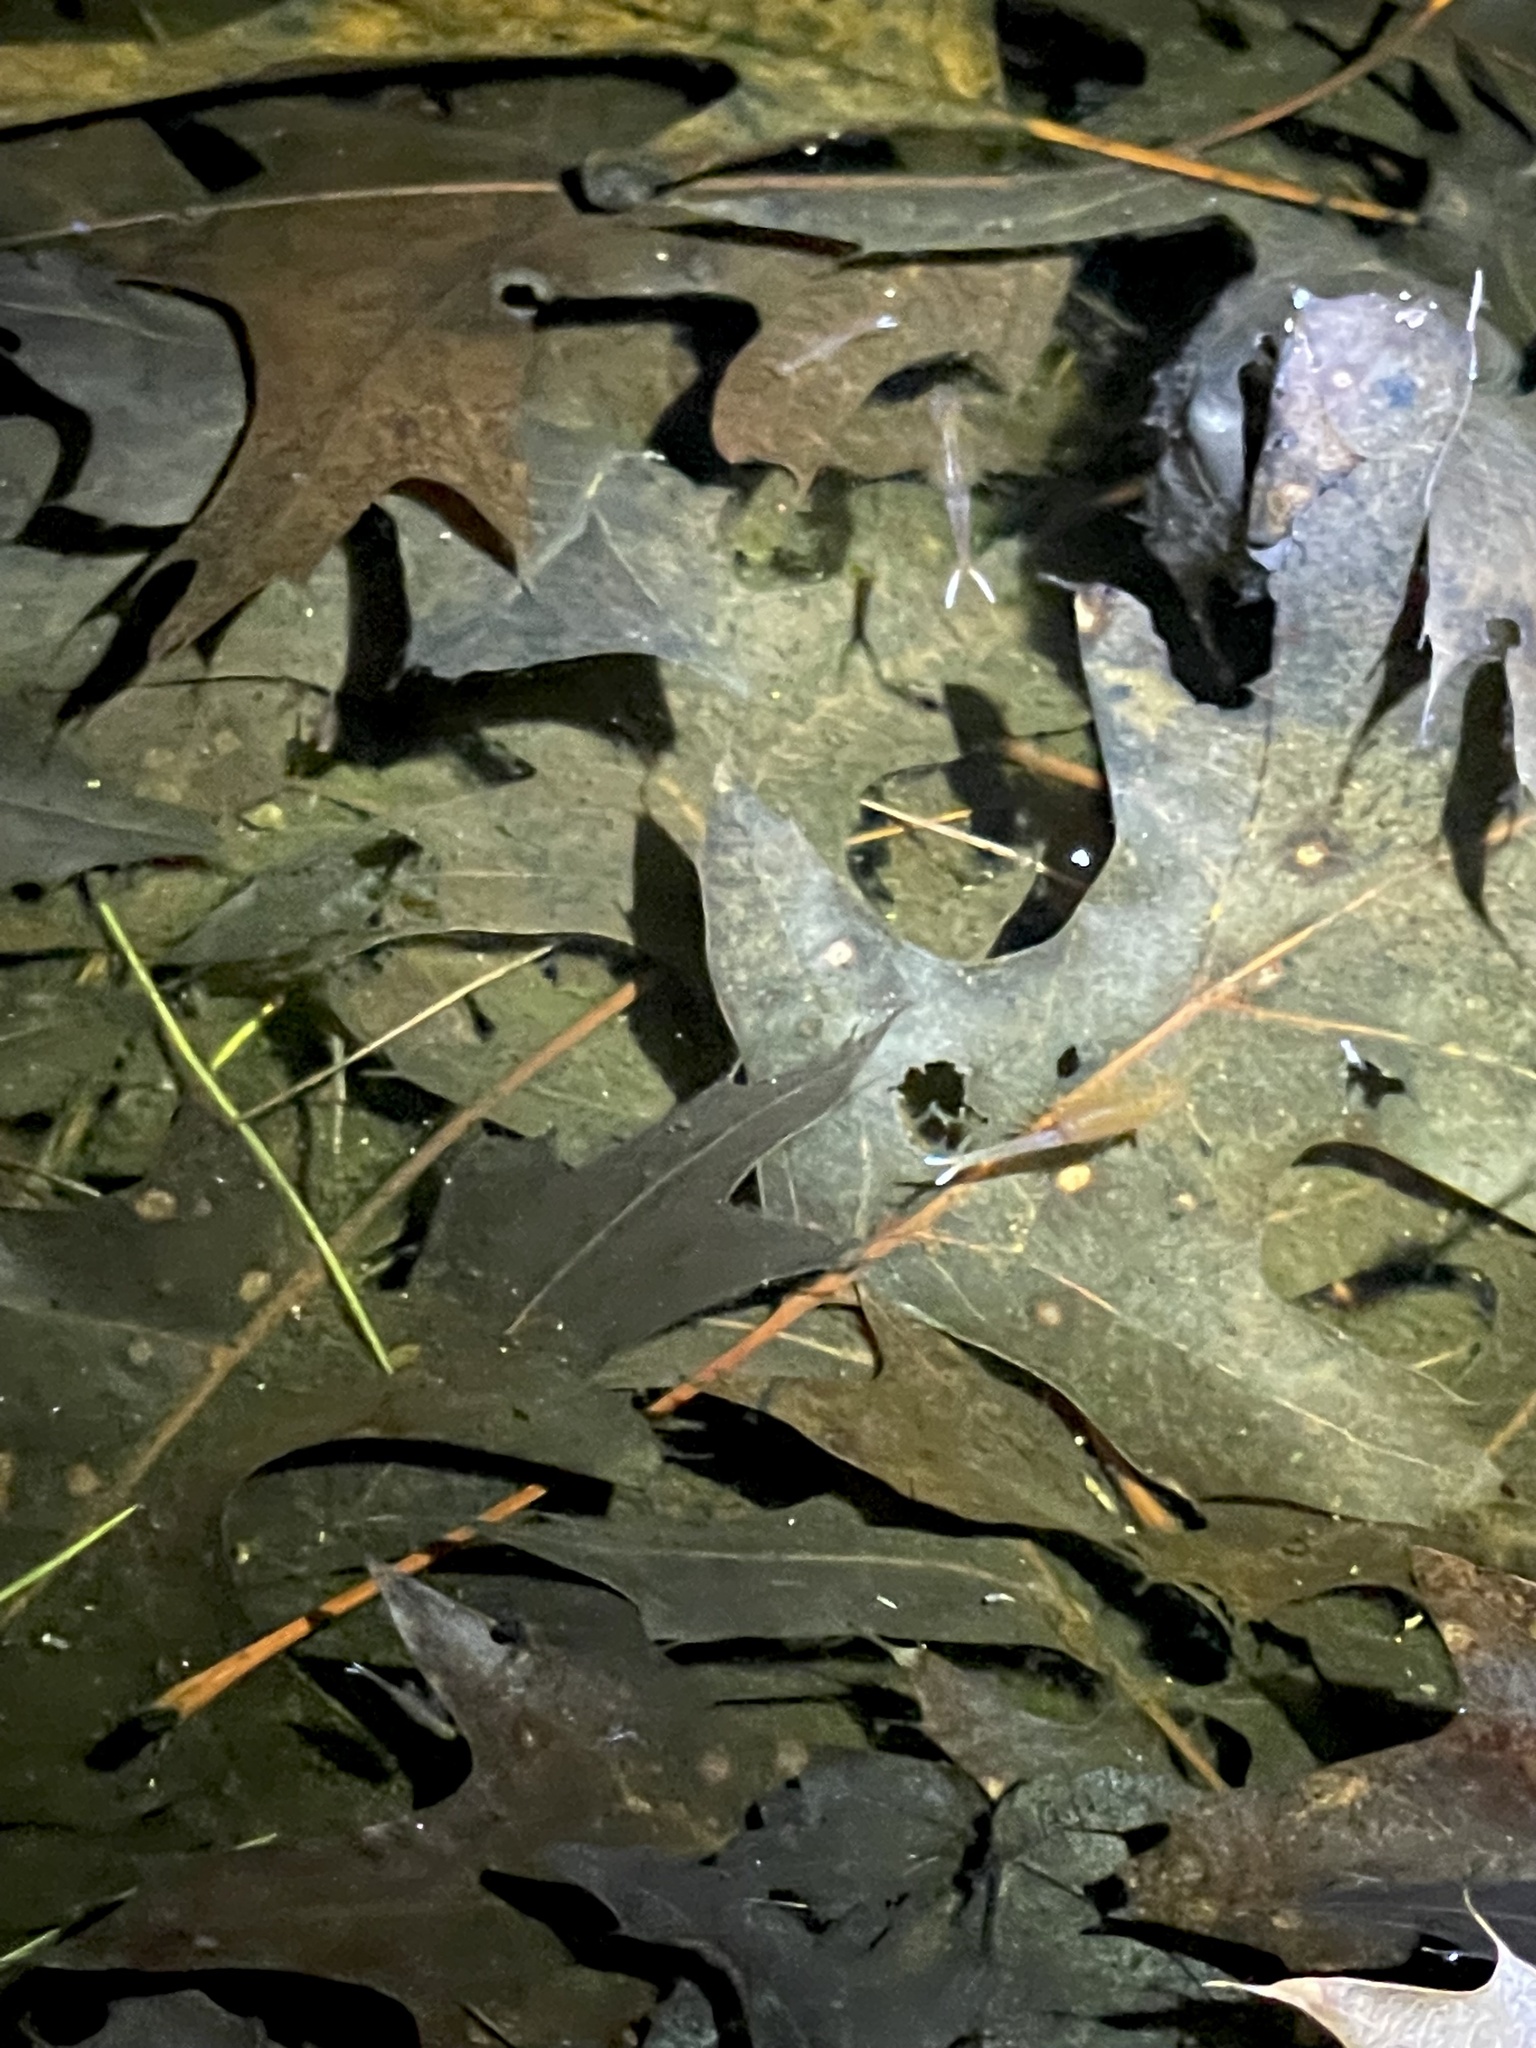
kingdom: Animalia
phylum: Arthropoda
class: Branchiopoda
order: Anostraca
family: Chirocephalidae
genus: Eubranchipus
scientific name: Eubranchipus vernalis
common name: Eastern fairy shrimp
